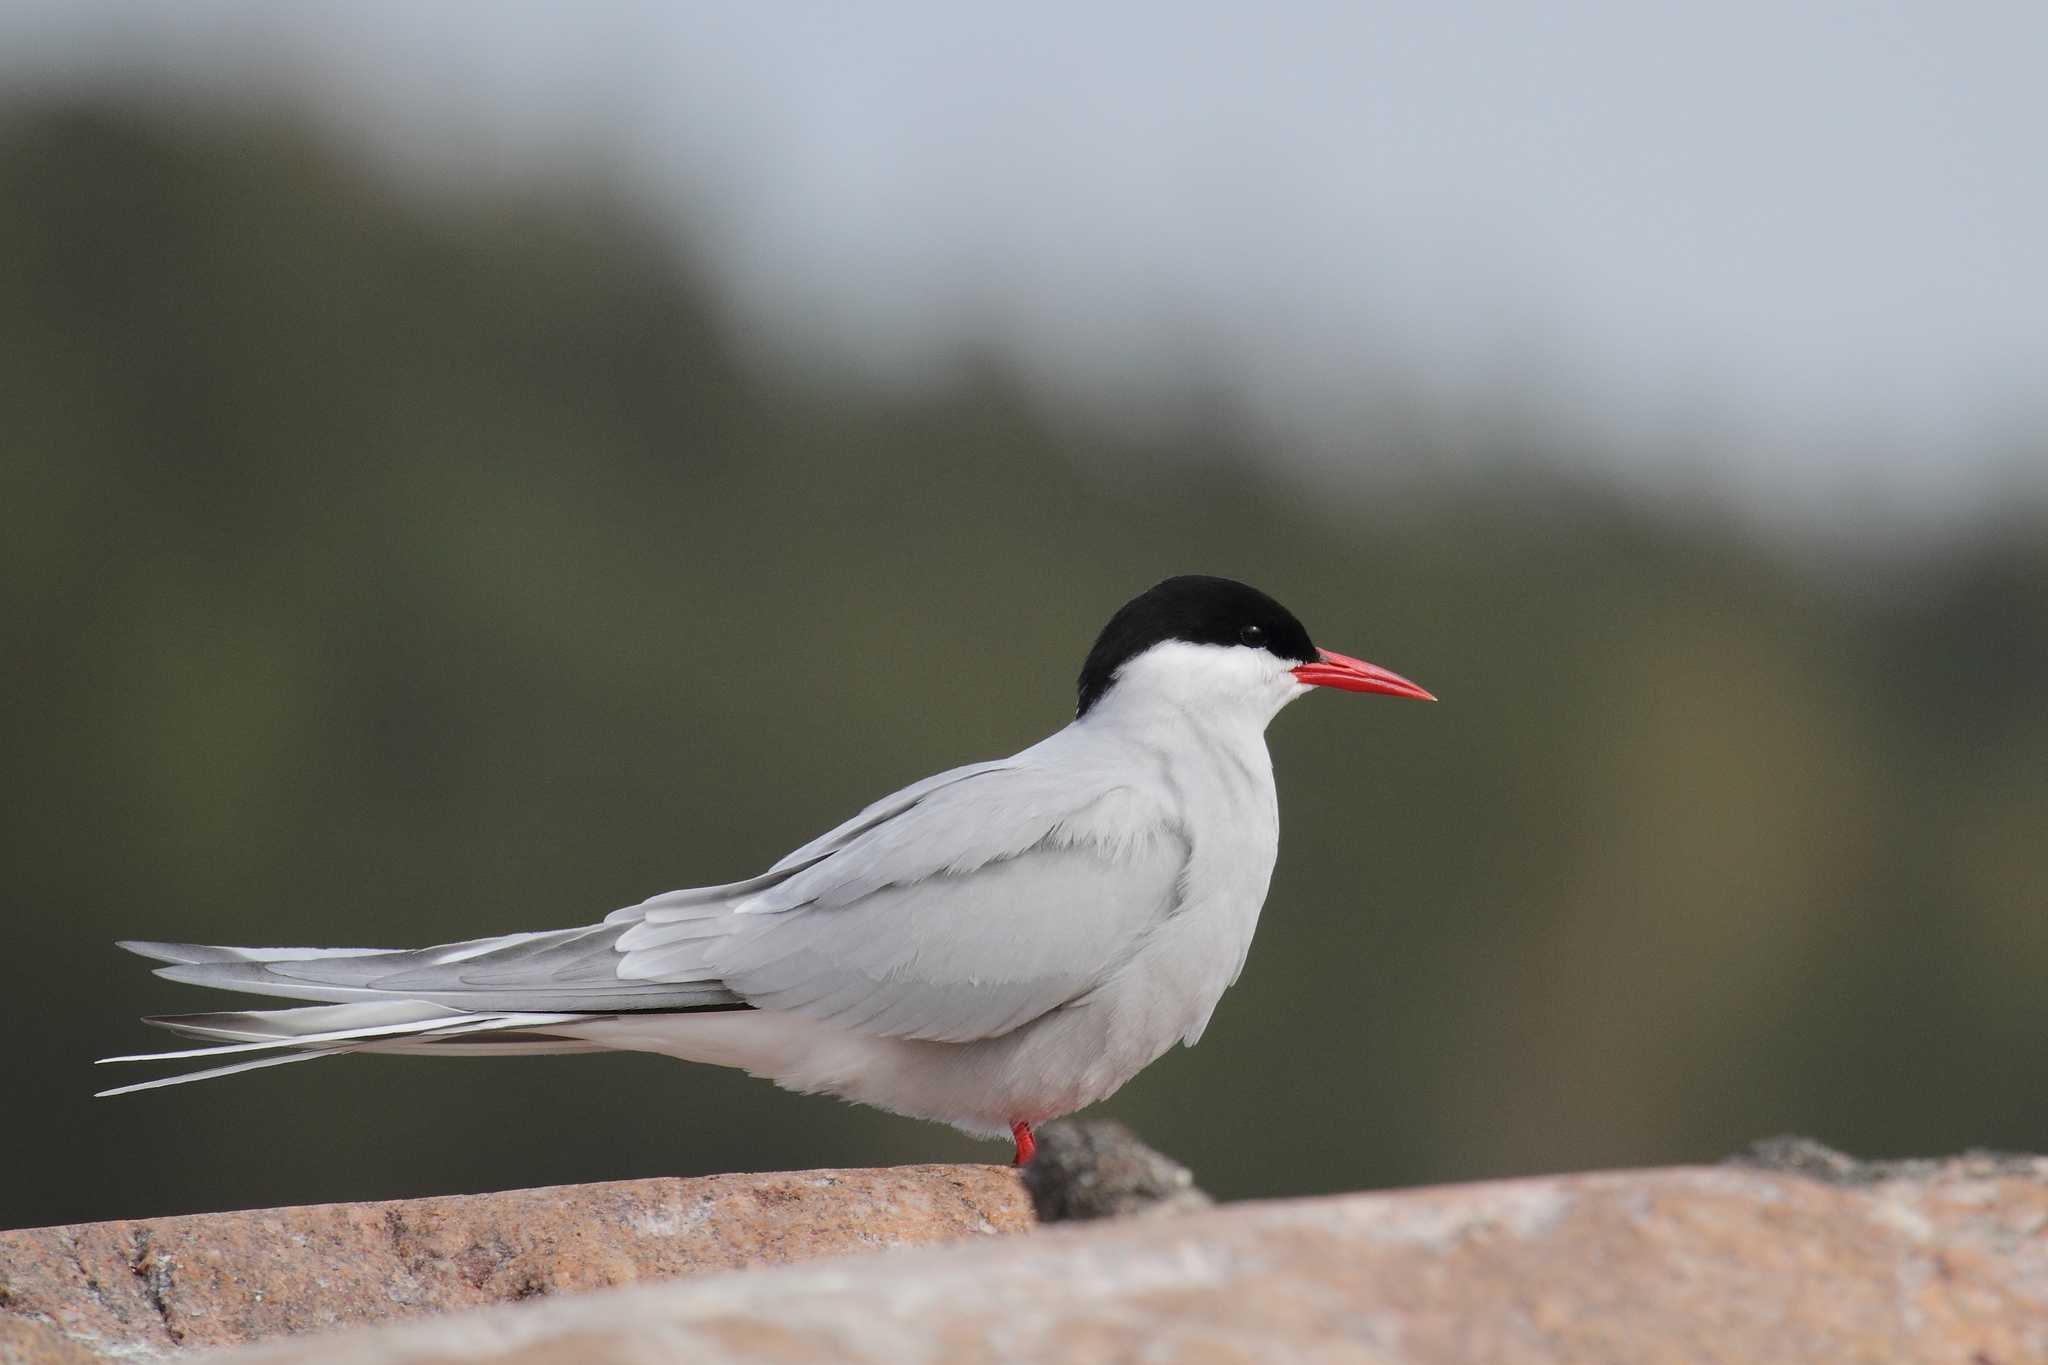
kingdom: Animalia
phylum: Chordata
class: Aves
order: Charadriiformes
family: Laridae
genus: Sterna
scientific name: Sterna paradisaea
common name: Arctic tern
